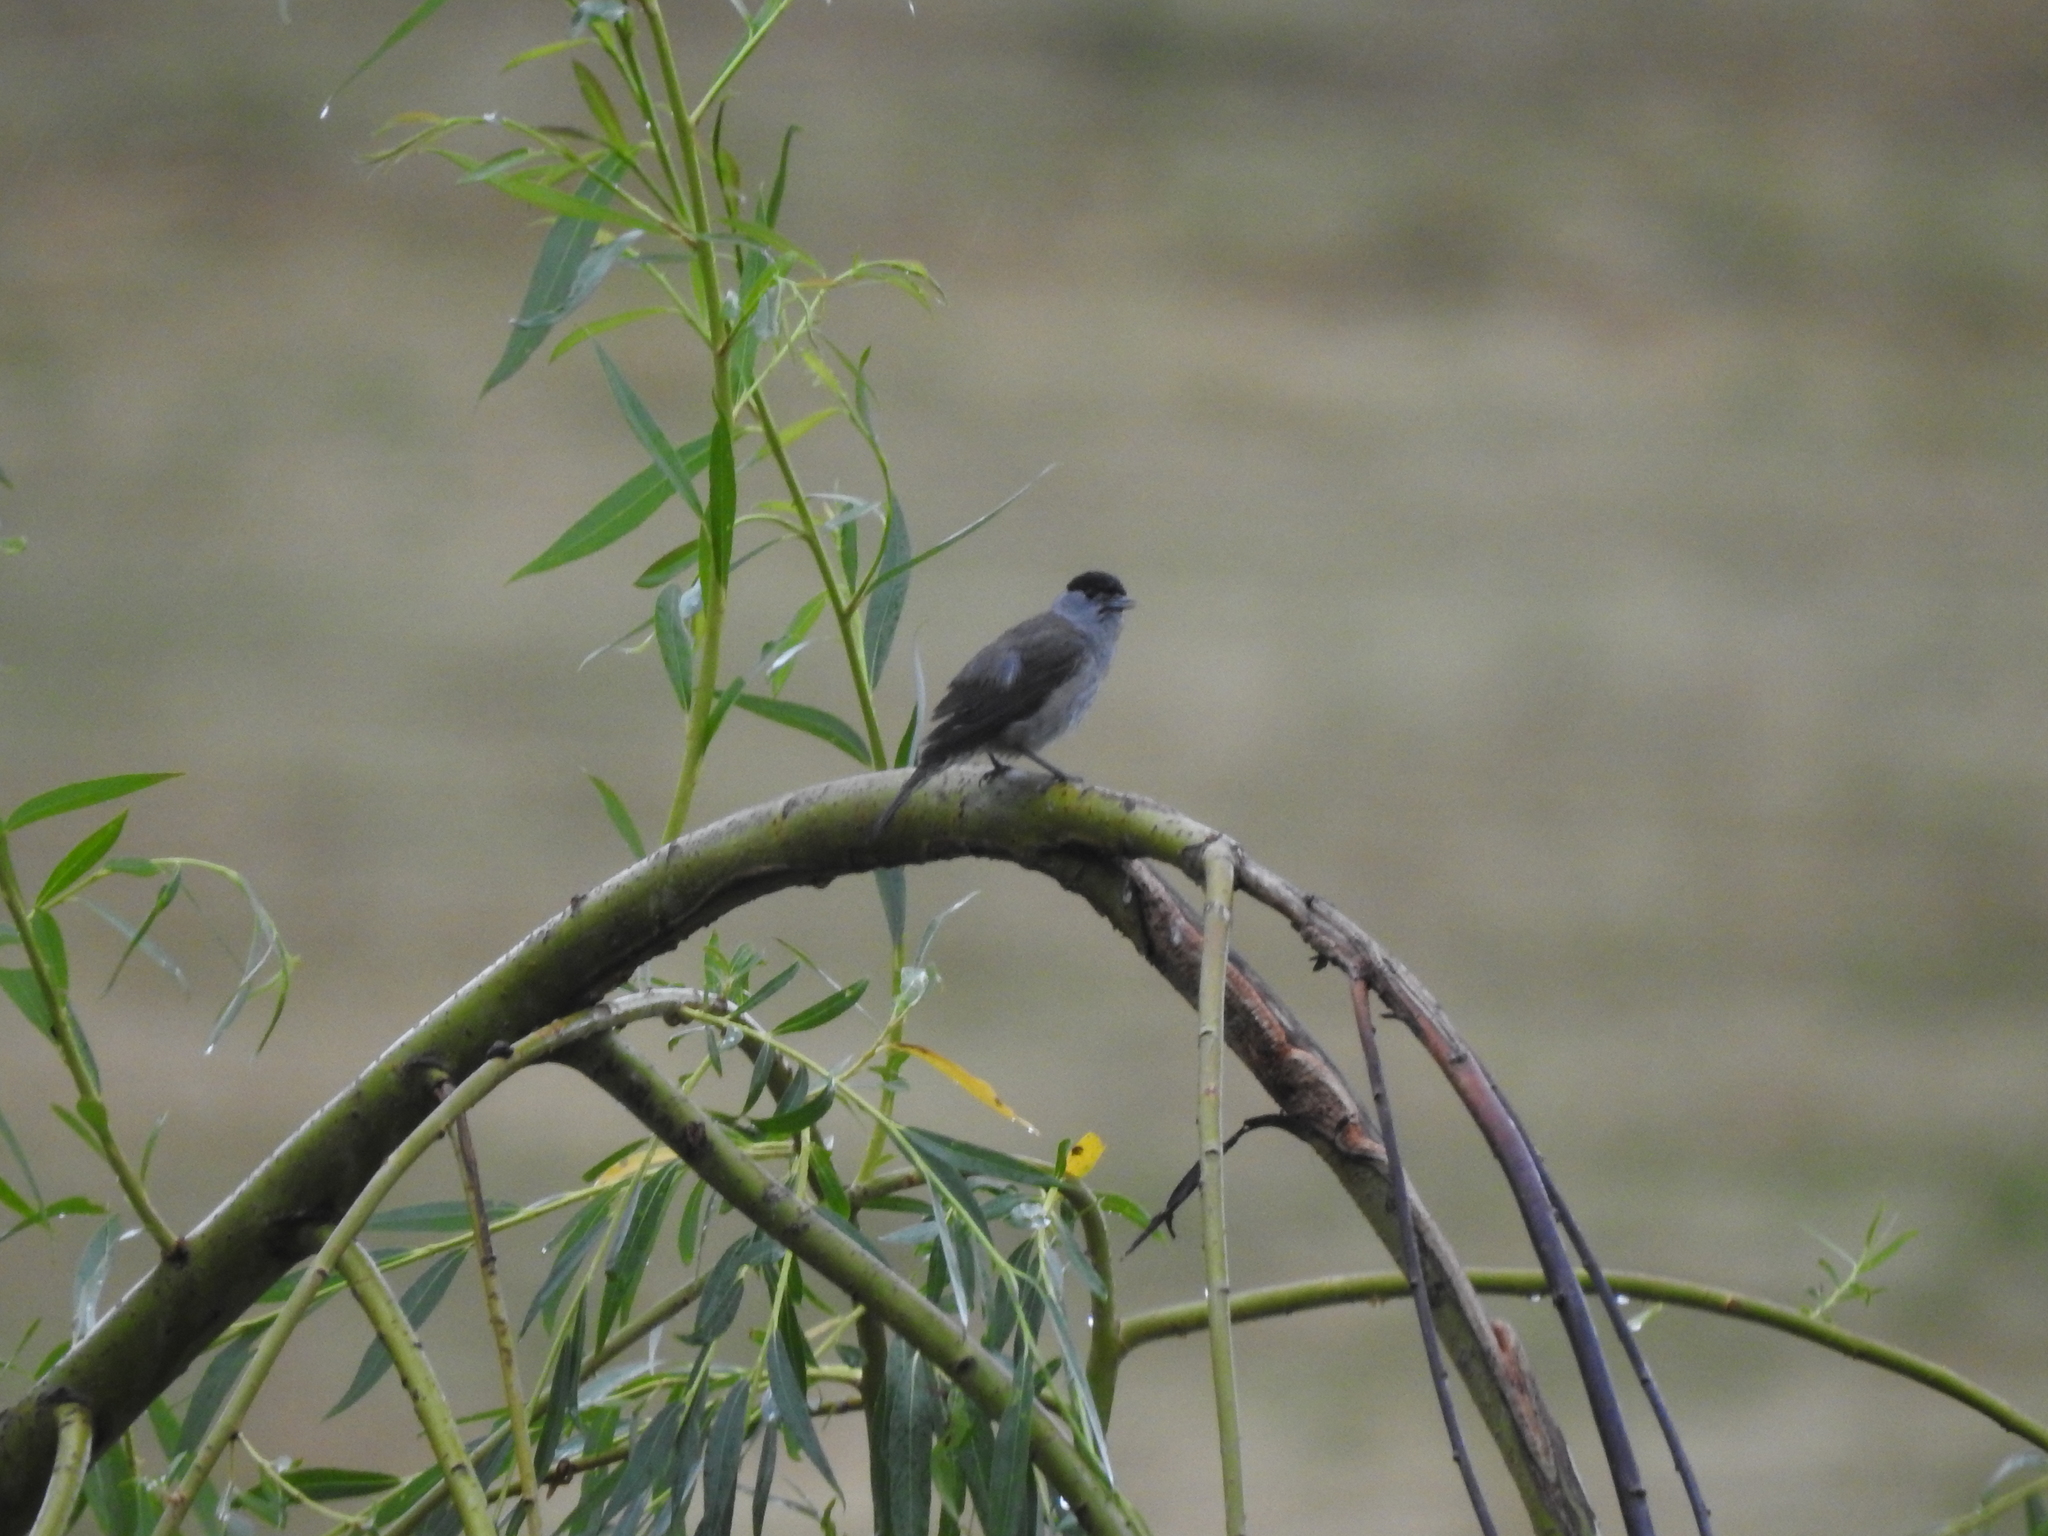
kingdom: Animalia
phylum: Chordata
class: Aves
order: Passeriformes
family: Sylviidae
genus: Sylvia
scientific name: Sylvia atricapilla
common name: Eurasian blackcap
